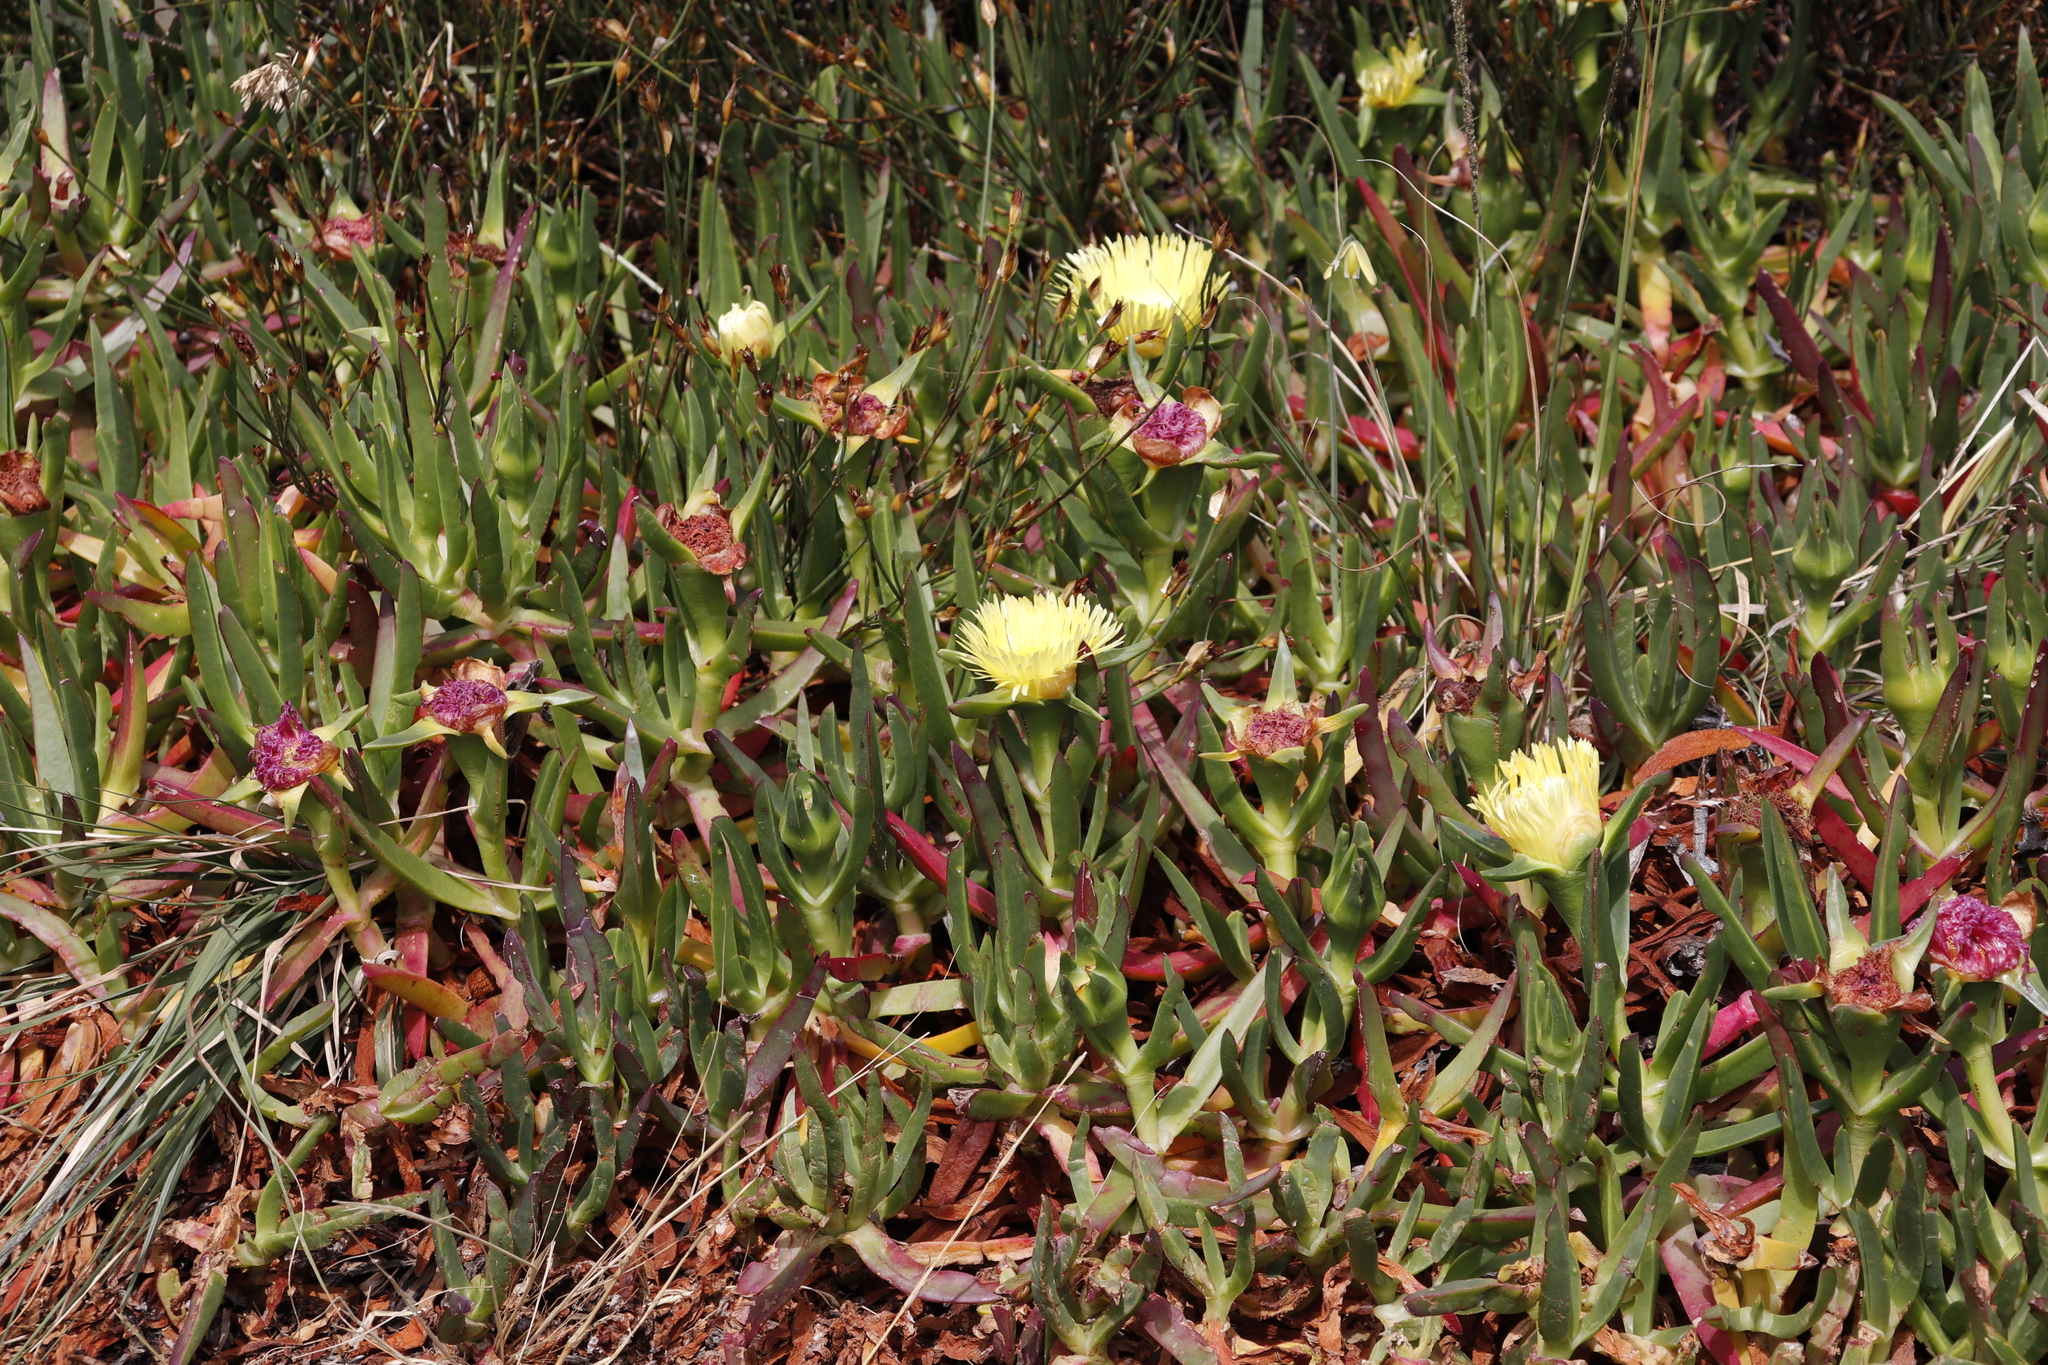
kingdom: Plantae
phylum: Tracheophyta
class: Magnoliopsida
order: Caryophyllales
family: Aizoaceae
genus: Carpobrotus
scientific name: Carpobrotus edulis
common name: Hottentot-fig
